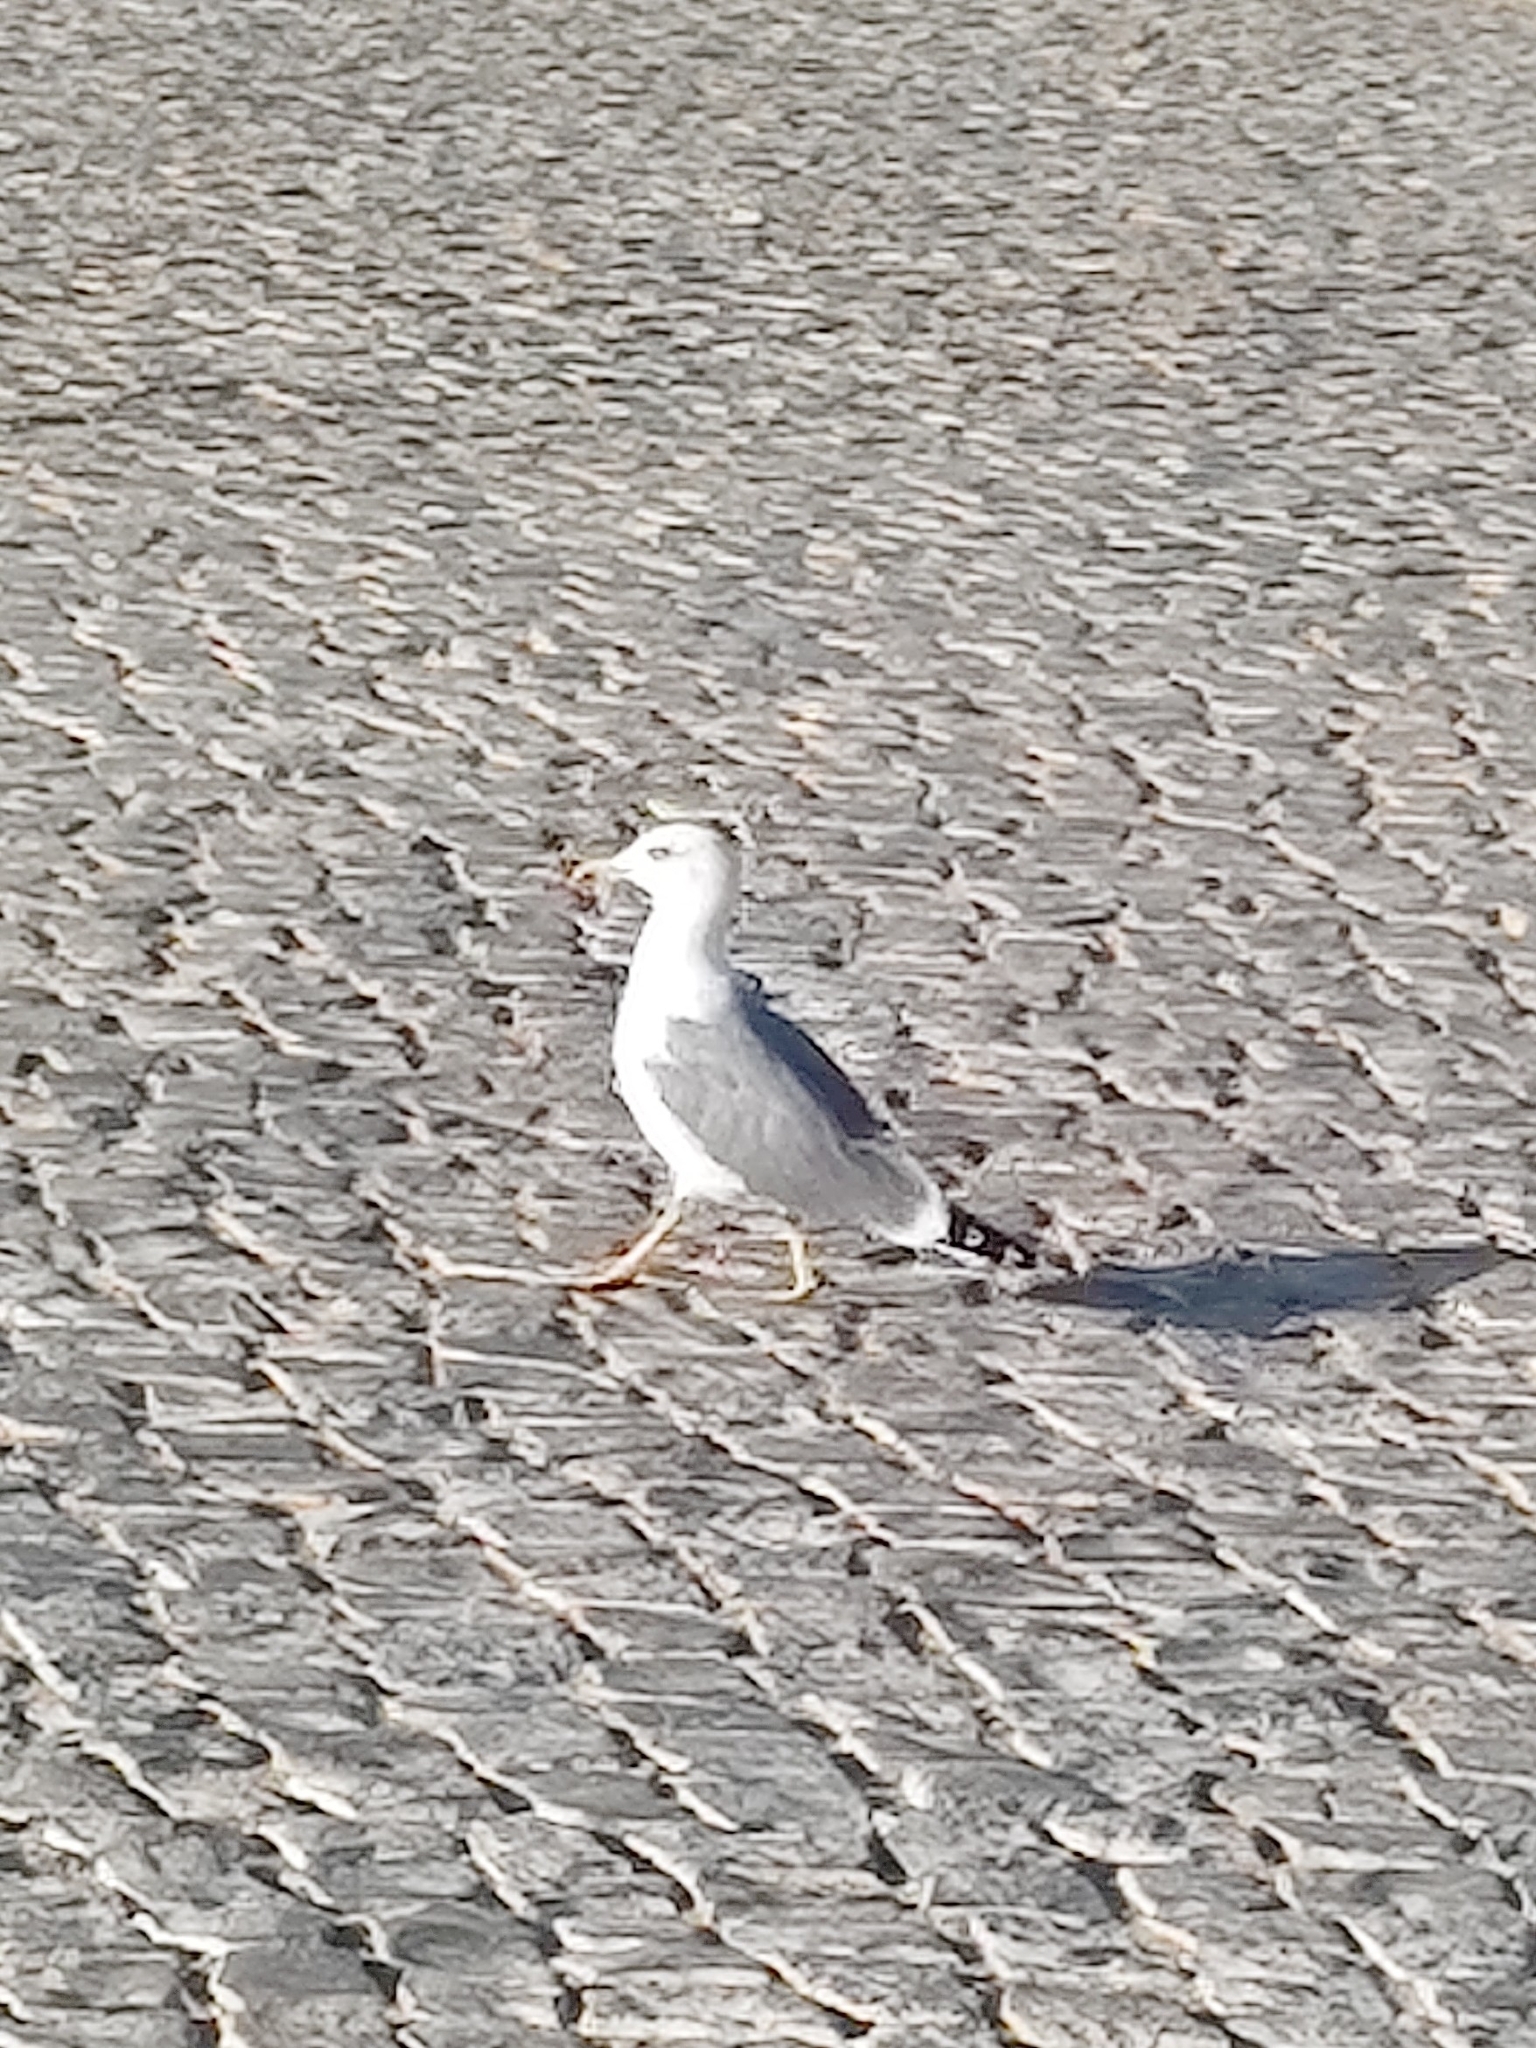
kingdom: Animalia
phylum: Chordata
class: Aves
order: Charadriiformes
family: Laridae
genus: Larus
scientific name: Larus michahellis
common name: Yellow-legged gull
